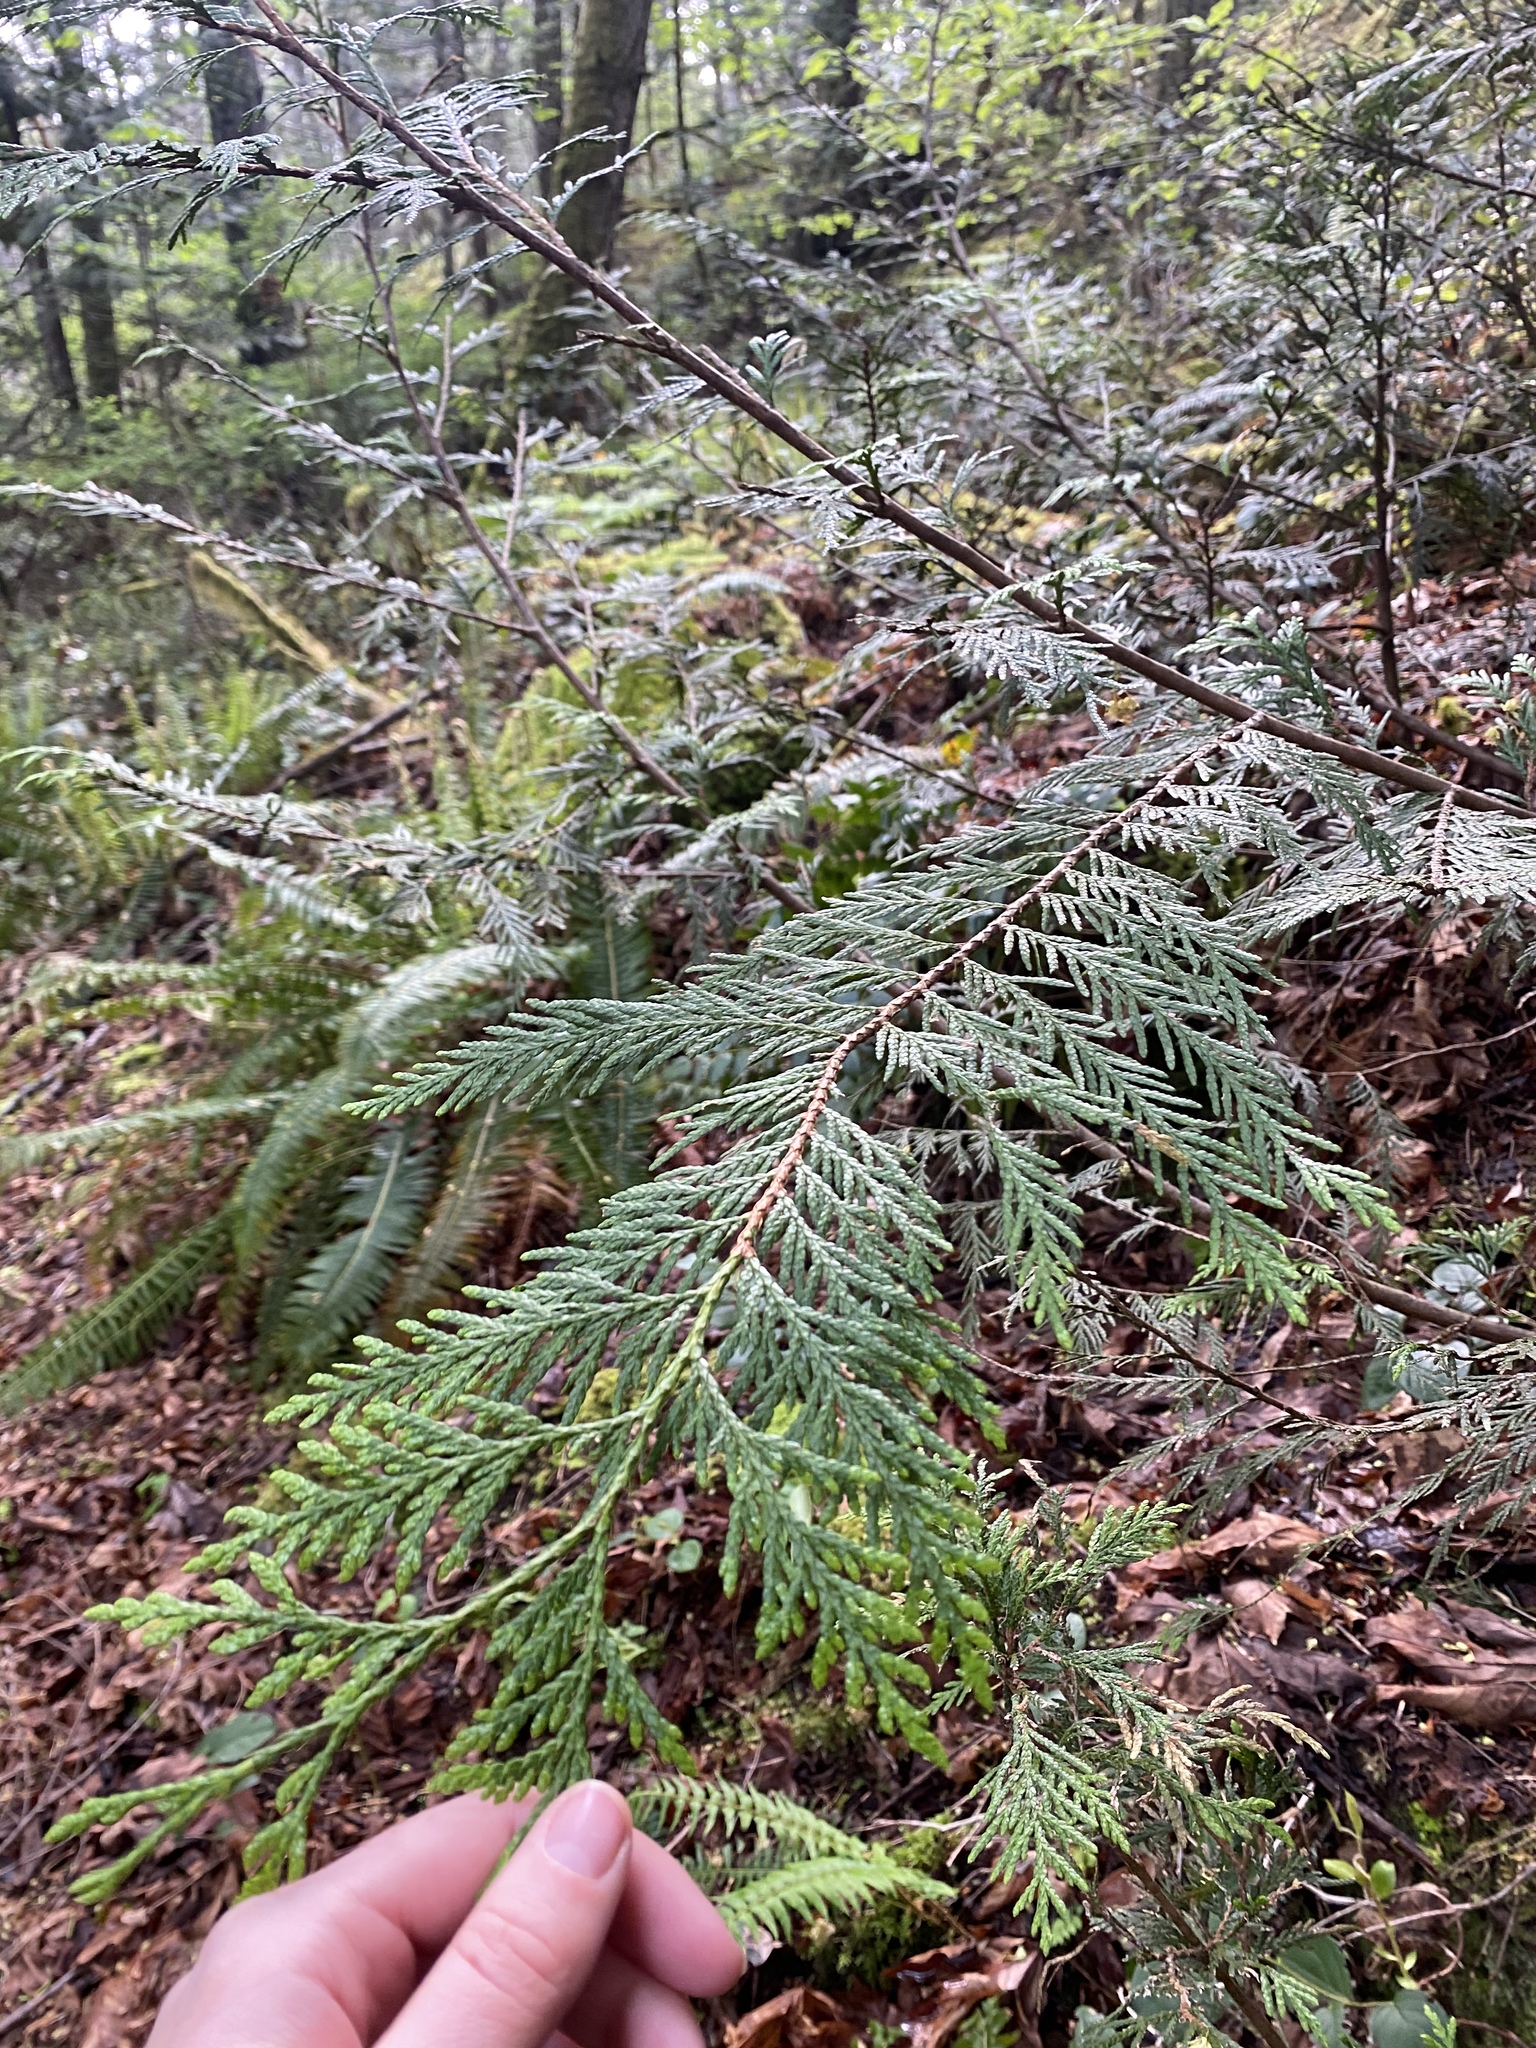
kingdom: Plantae
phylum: Tracheophyta
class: Pinopsida
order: Pinales
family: Cupressaceae
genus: Thuja
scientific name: Thuja plicata
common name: Western red-cedar
